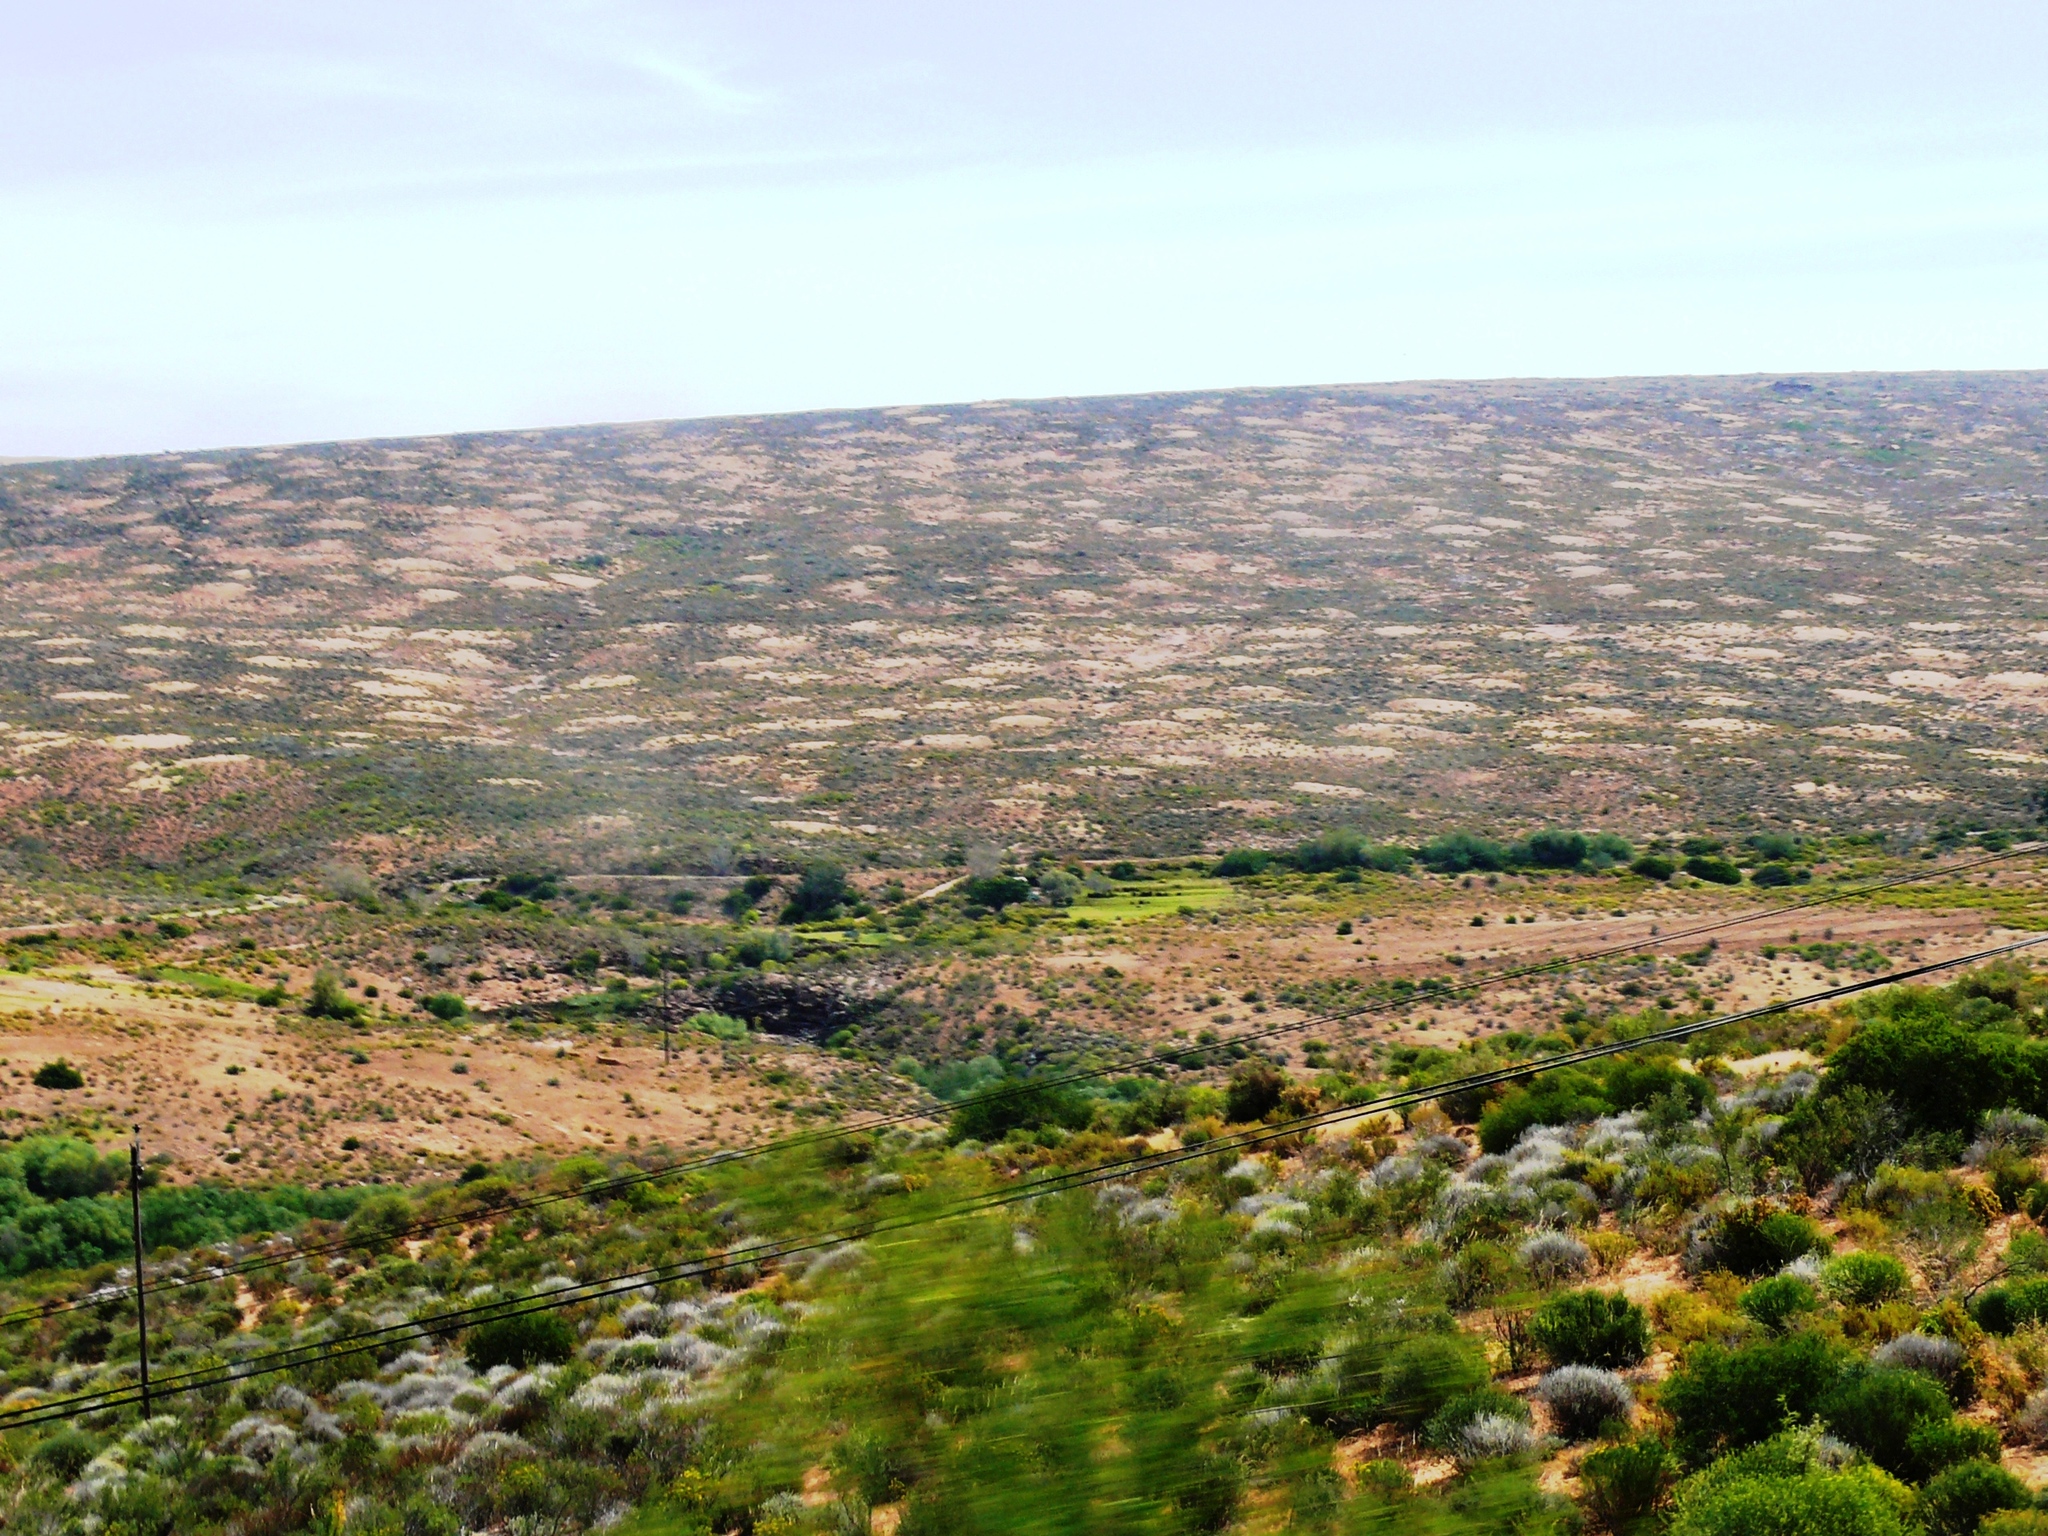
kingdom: Animalia
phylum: Arthropoda
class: Insecta
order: Blattodea
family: Hodotermitidae
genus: Microhodotermes
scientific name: Microhodotermes viator
